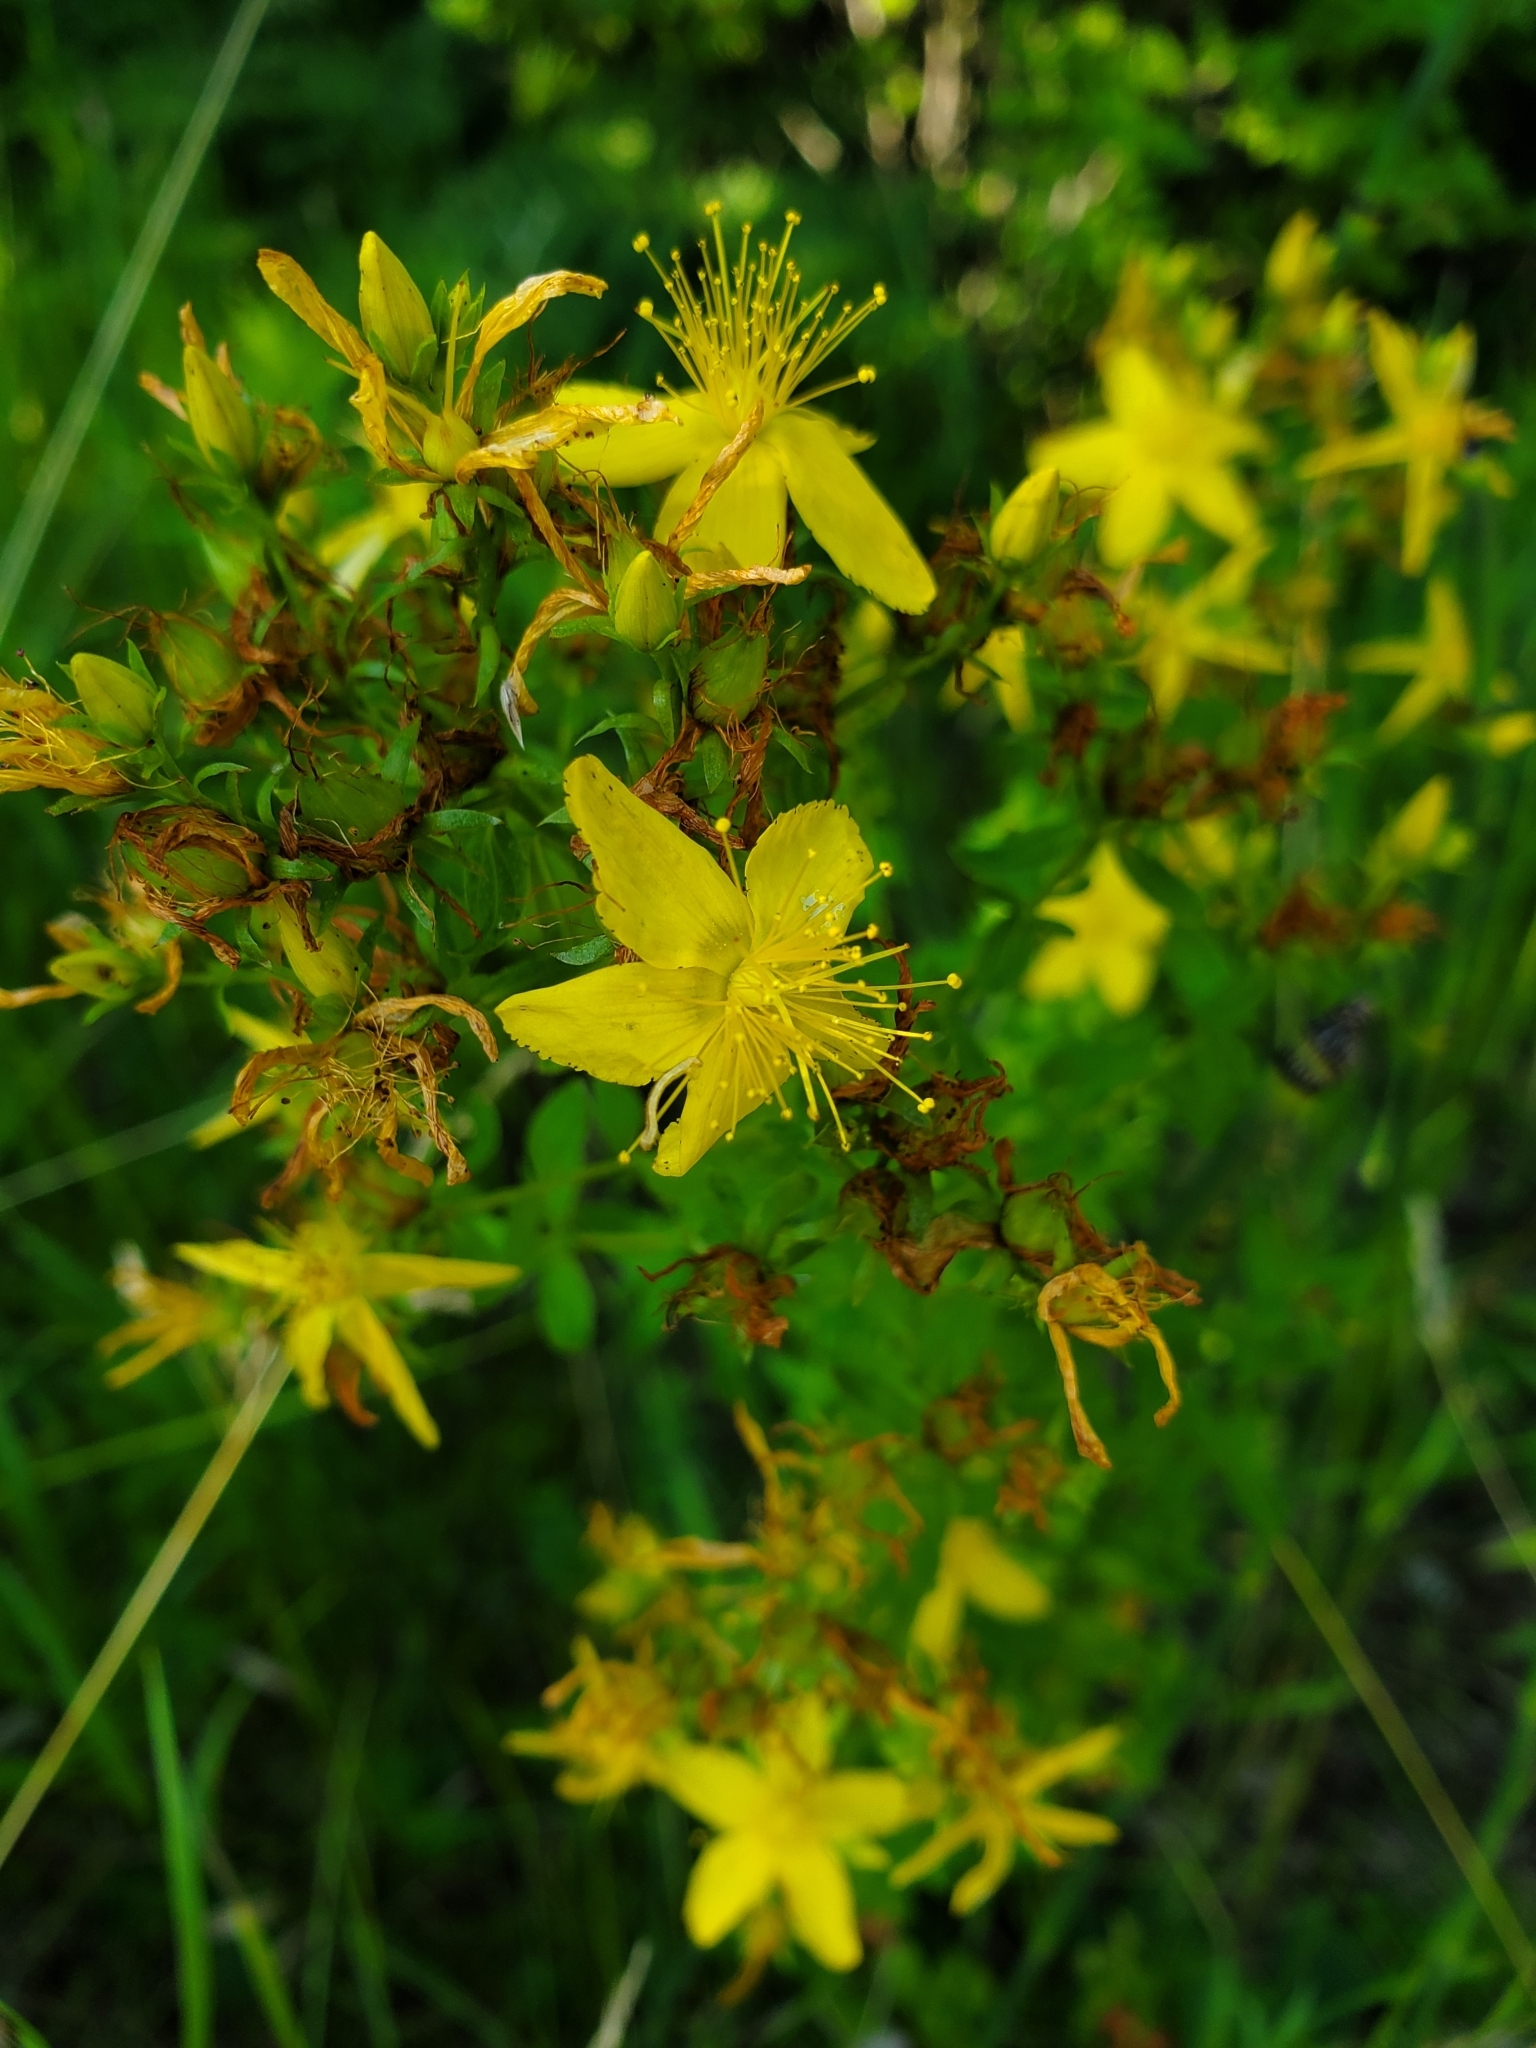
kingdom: Plantae
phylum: Tracheophyta
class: Magnoliopsida
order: Malpighiales
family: Hypericaceae
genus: Hypericum
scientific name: Hypericum perforatum
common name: Common st. johnswort
